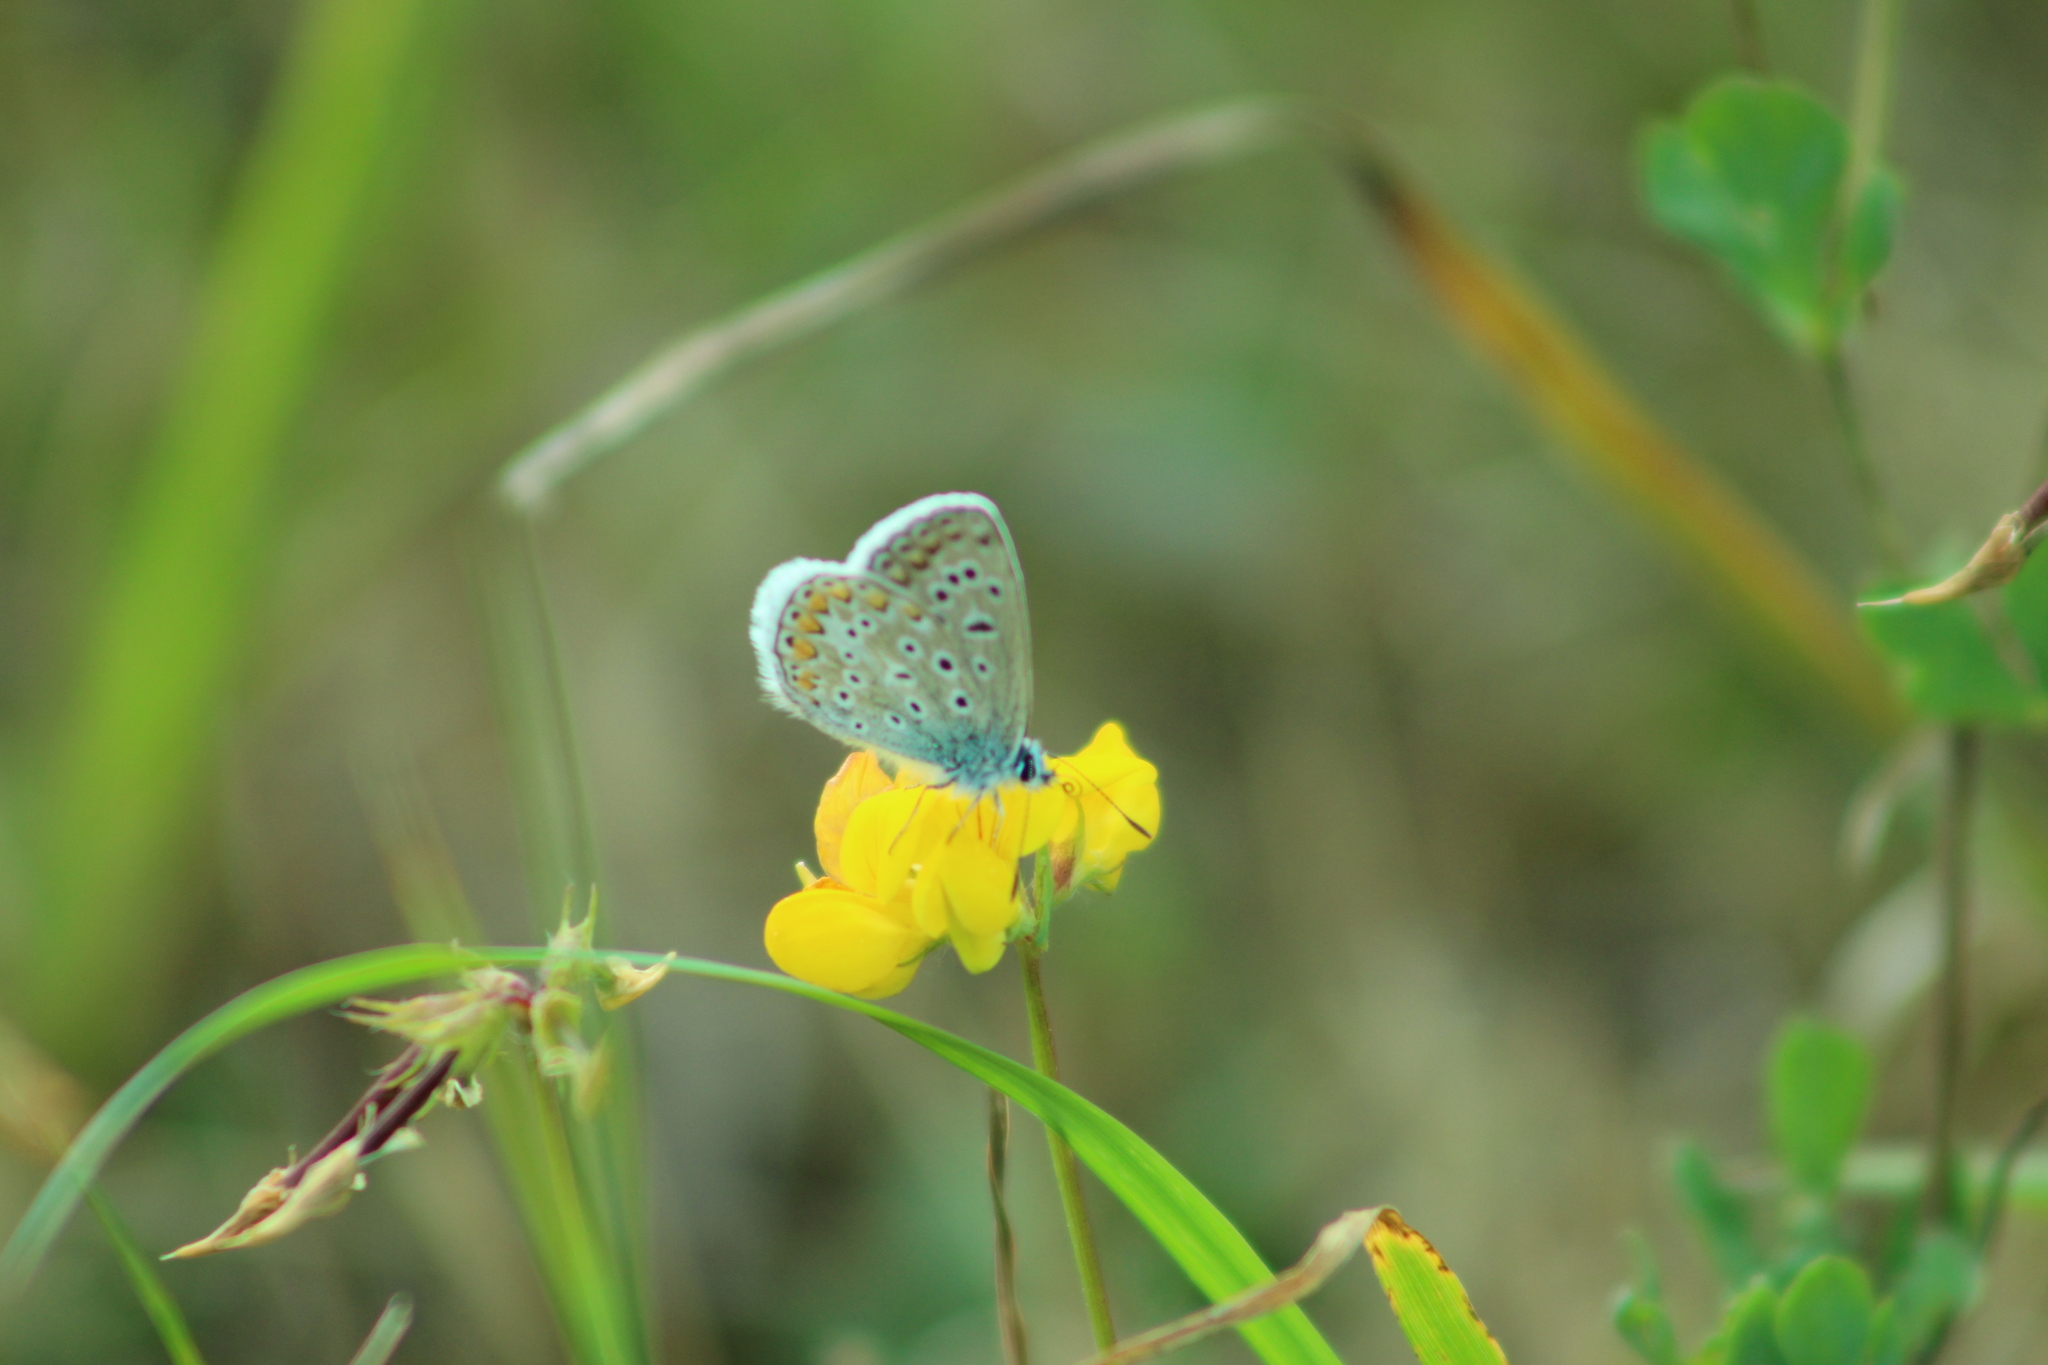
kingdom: Animalia
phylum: Arthropoda
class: Insecta
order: Lepidoptera
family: Lycaenidae
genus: Polyommatus
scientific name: Polyommatus icarus
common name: Common blue
